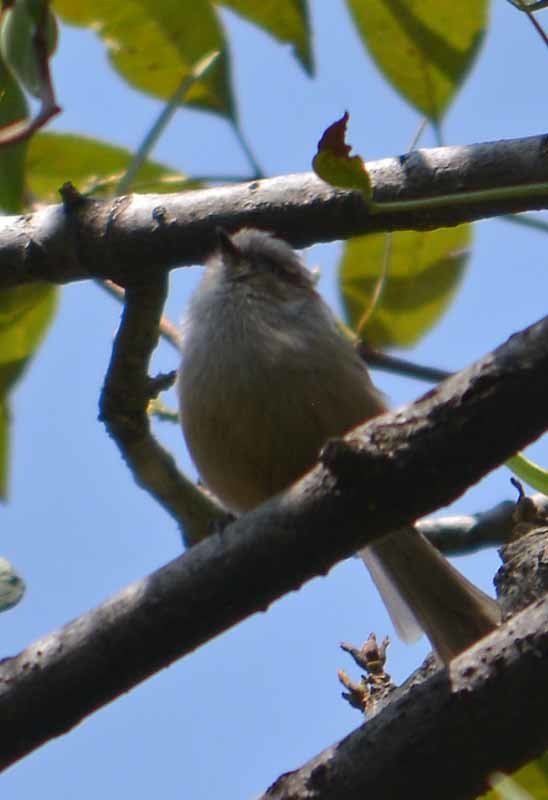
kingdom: Animalia
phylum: Chordata
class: Aves
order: Passeriformes
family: Aegithalidae
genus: Psaltriparus
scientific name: Psaltriparus minimus
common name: American bushtit
